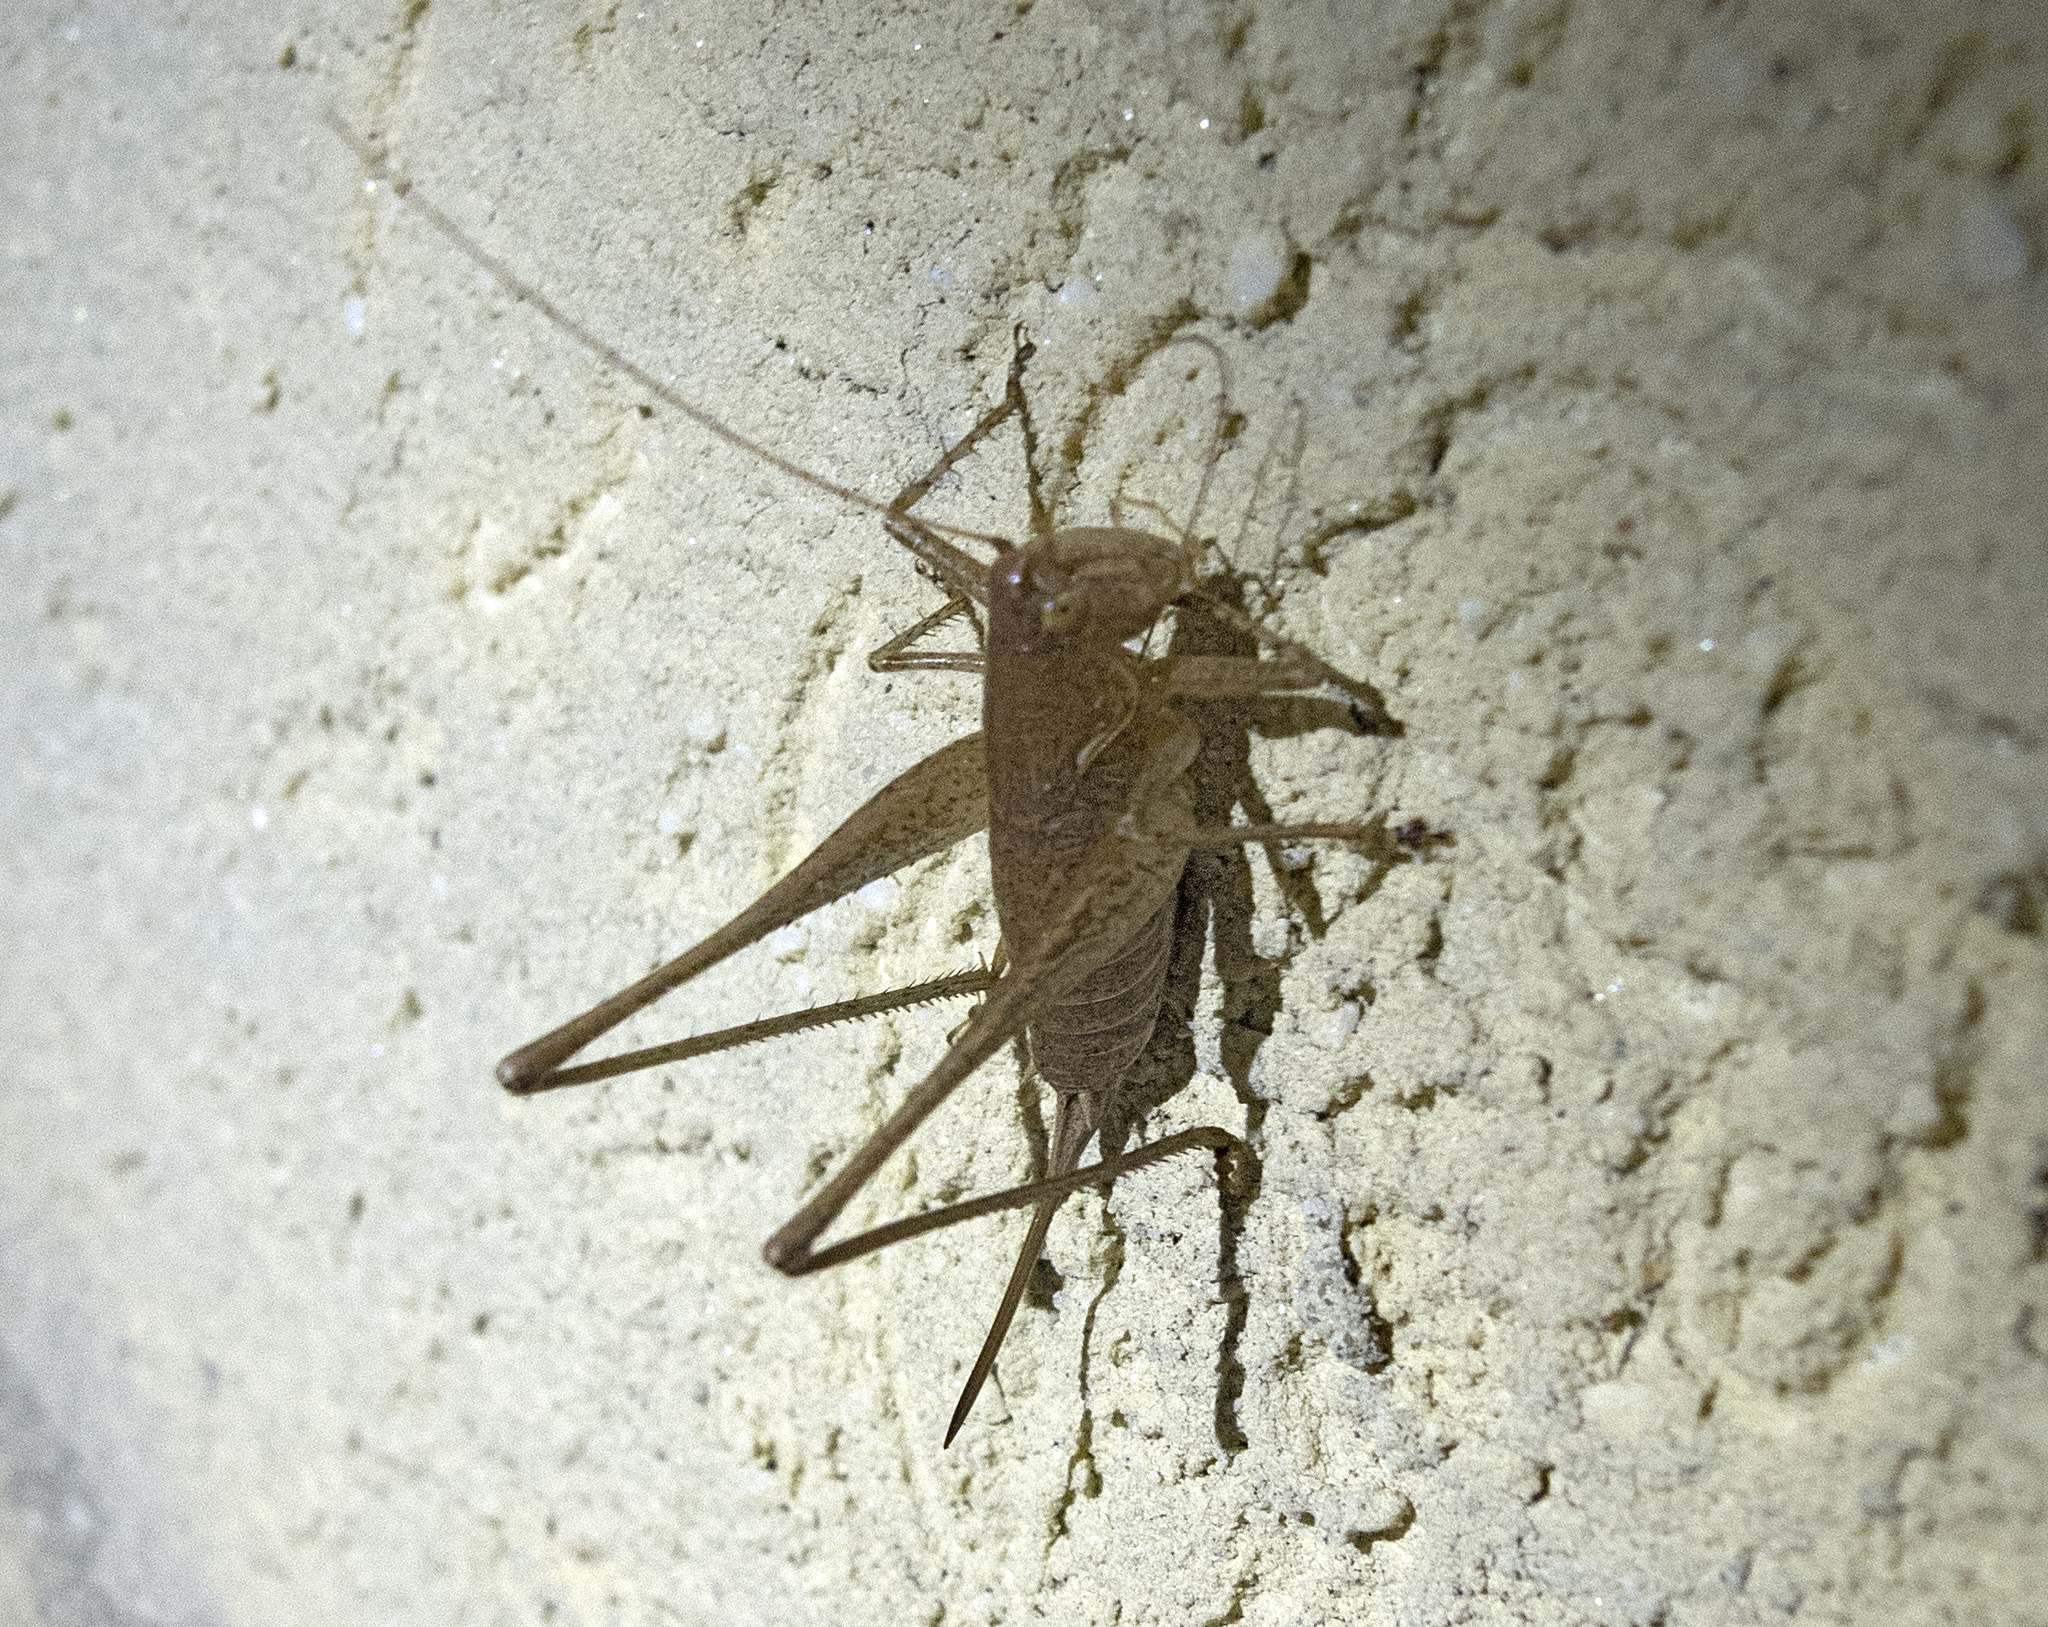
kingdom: Animalia
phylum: Arthropoda
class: Insecta
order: Orthoptera
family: Tettigoniidae
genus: Rhacocleis
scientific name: Rhacocleis germanica
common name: Mediterranean bush-cricket
